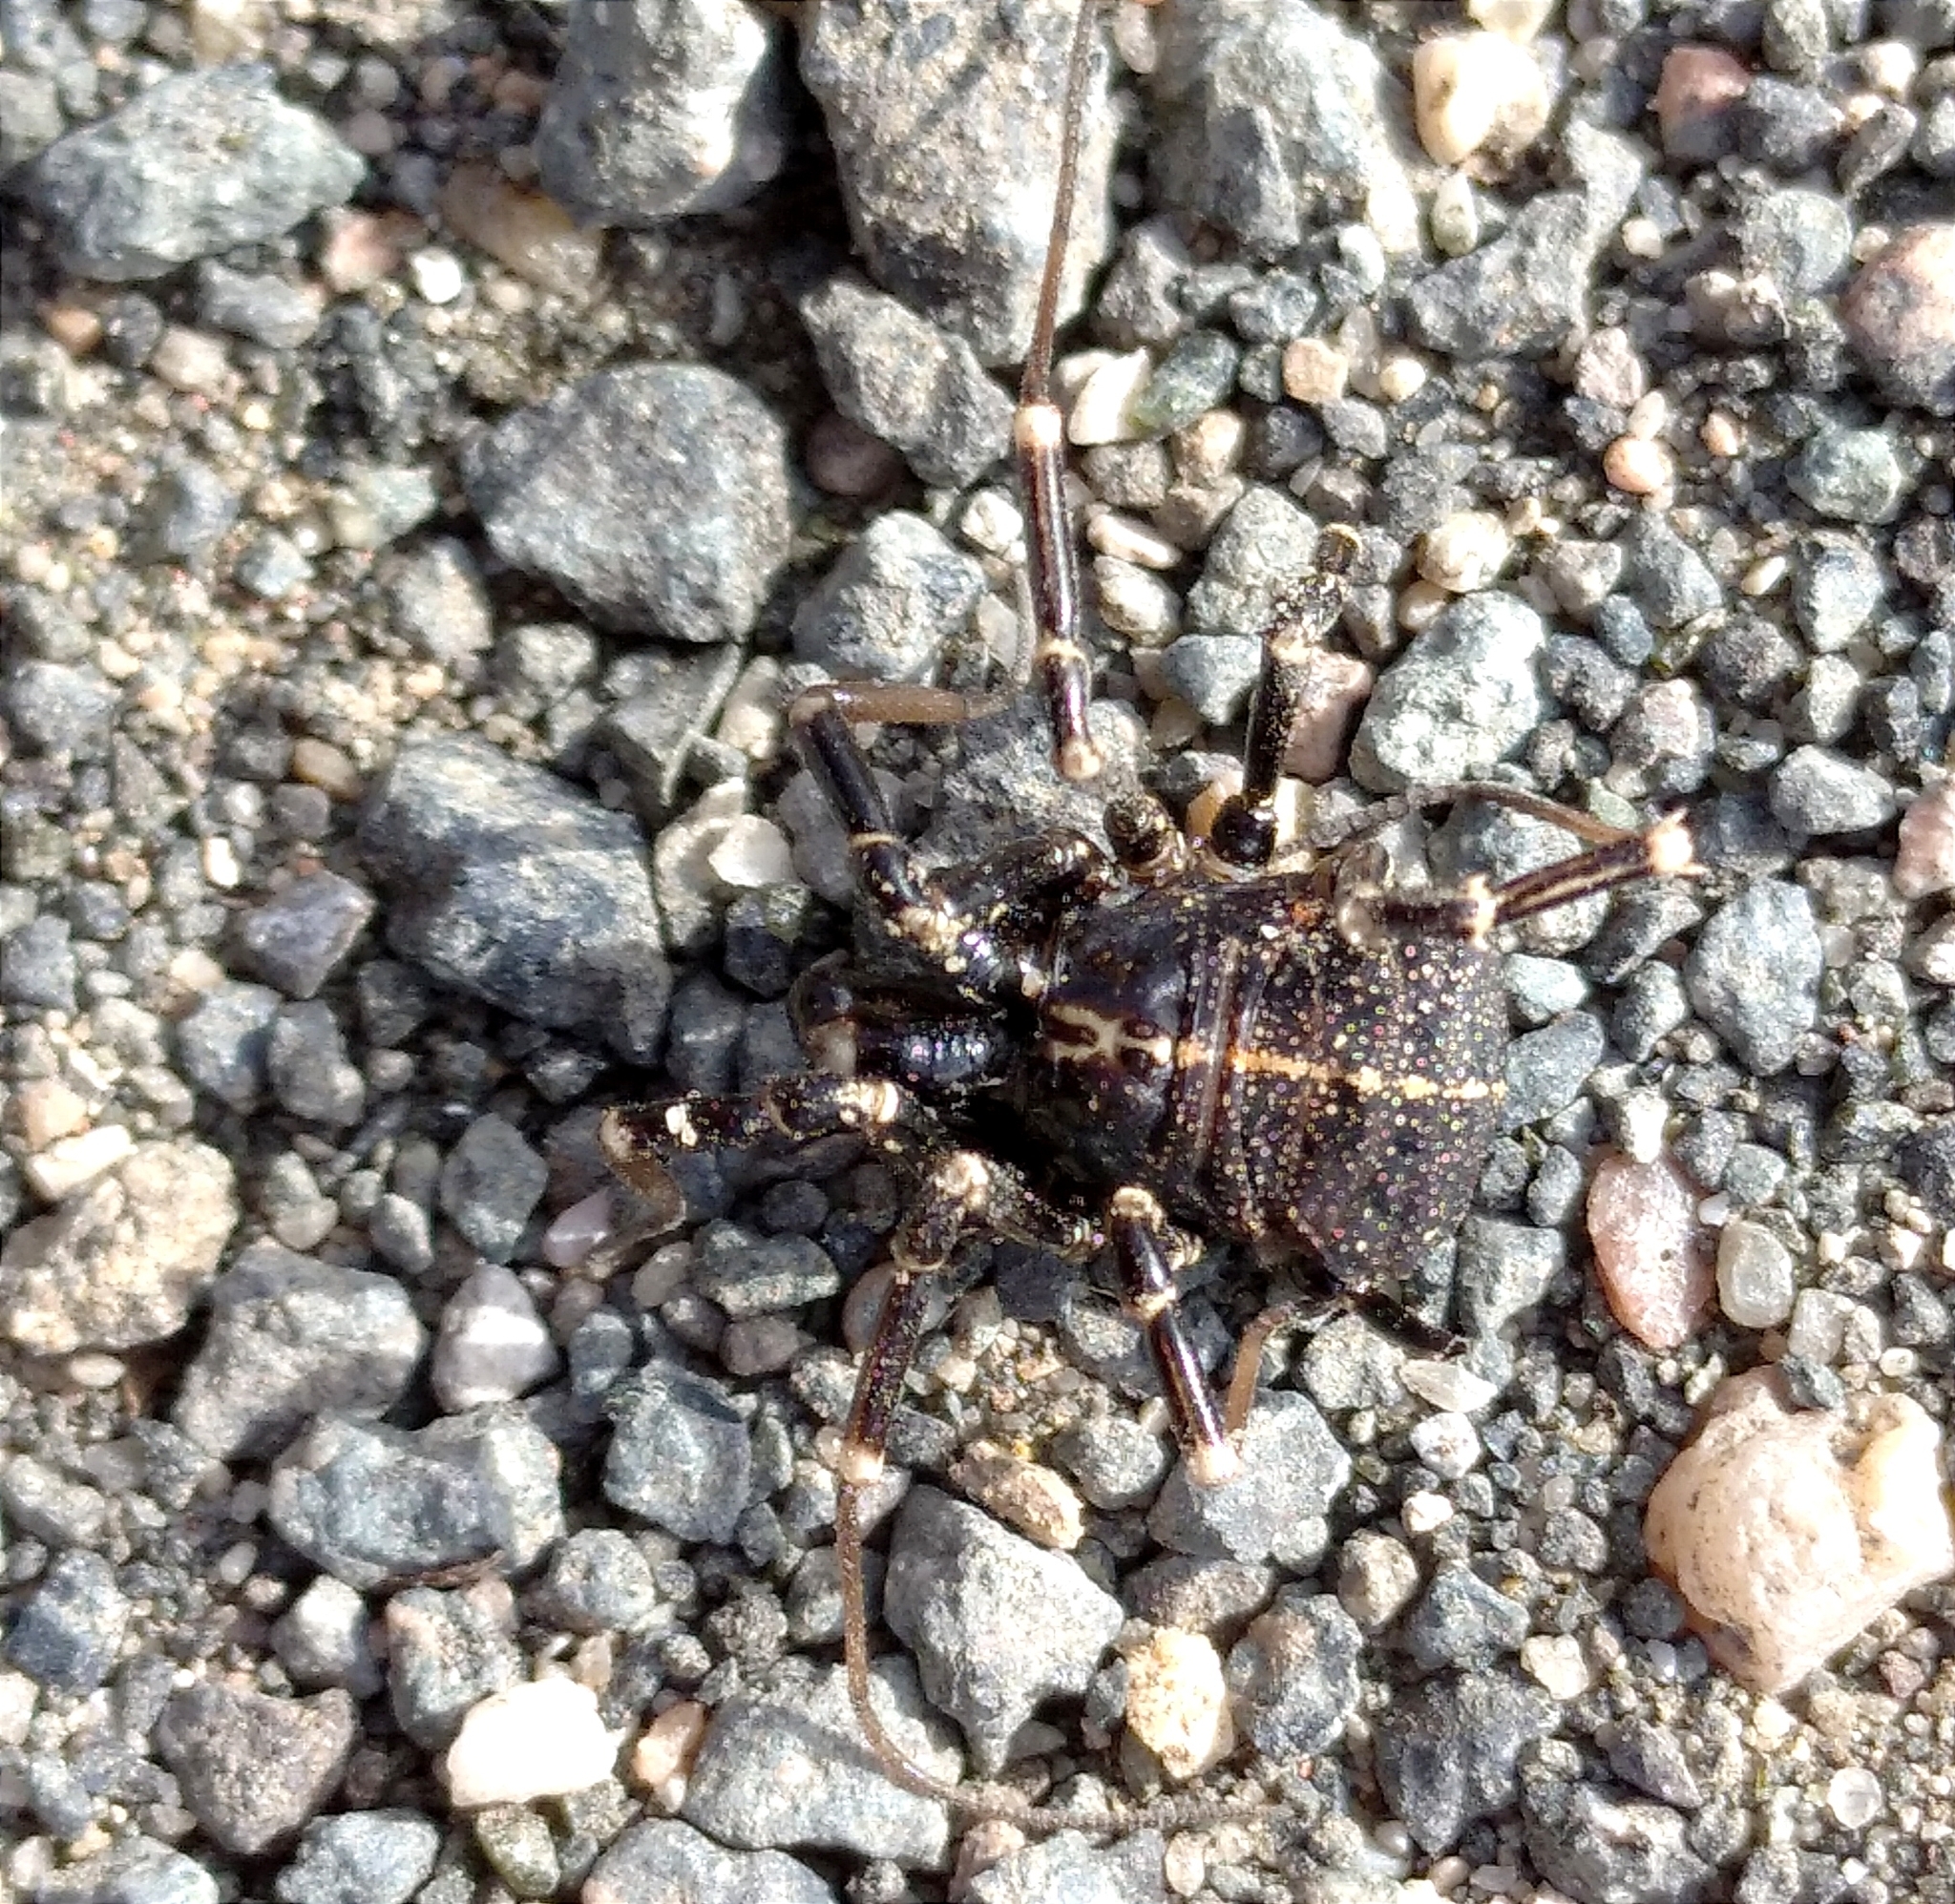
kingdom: Animalia
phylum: Arthropoda
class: Arachnida
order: Opiliones
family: Phalangiidae
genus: Egaenus
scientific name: Egaenus convexus
